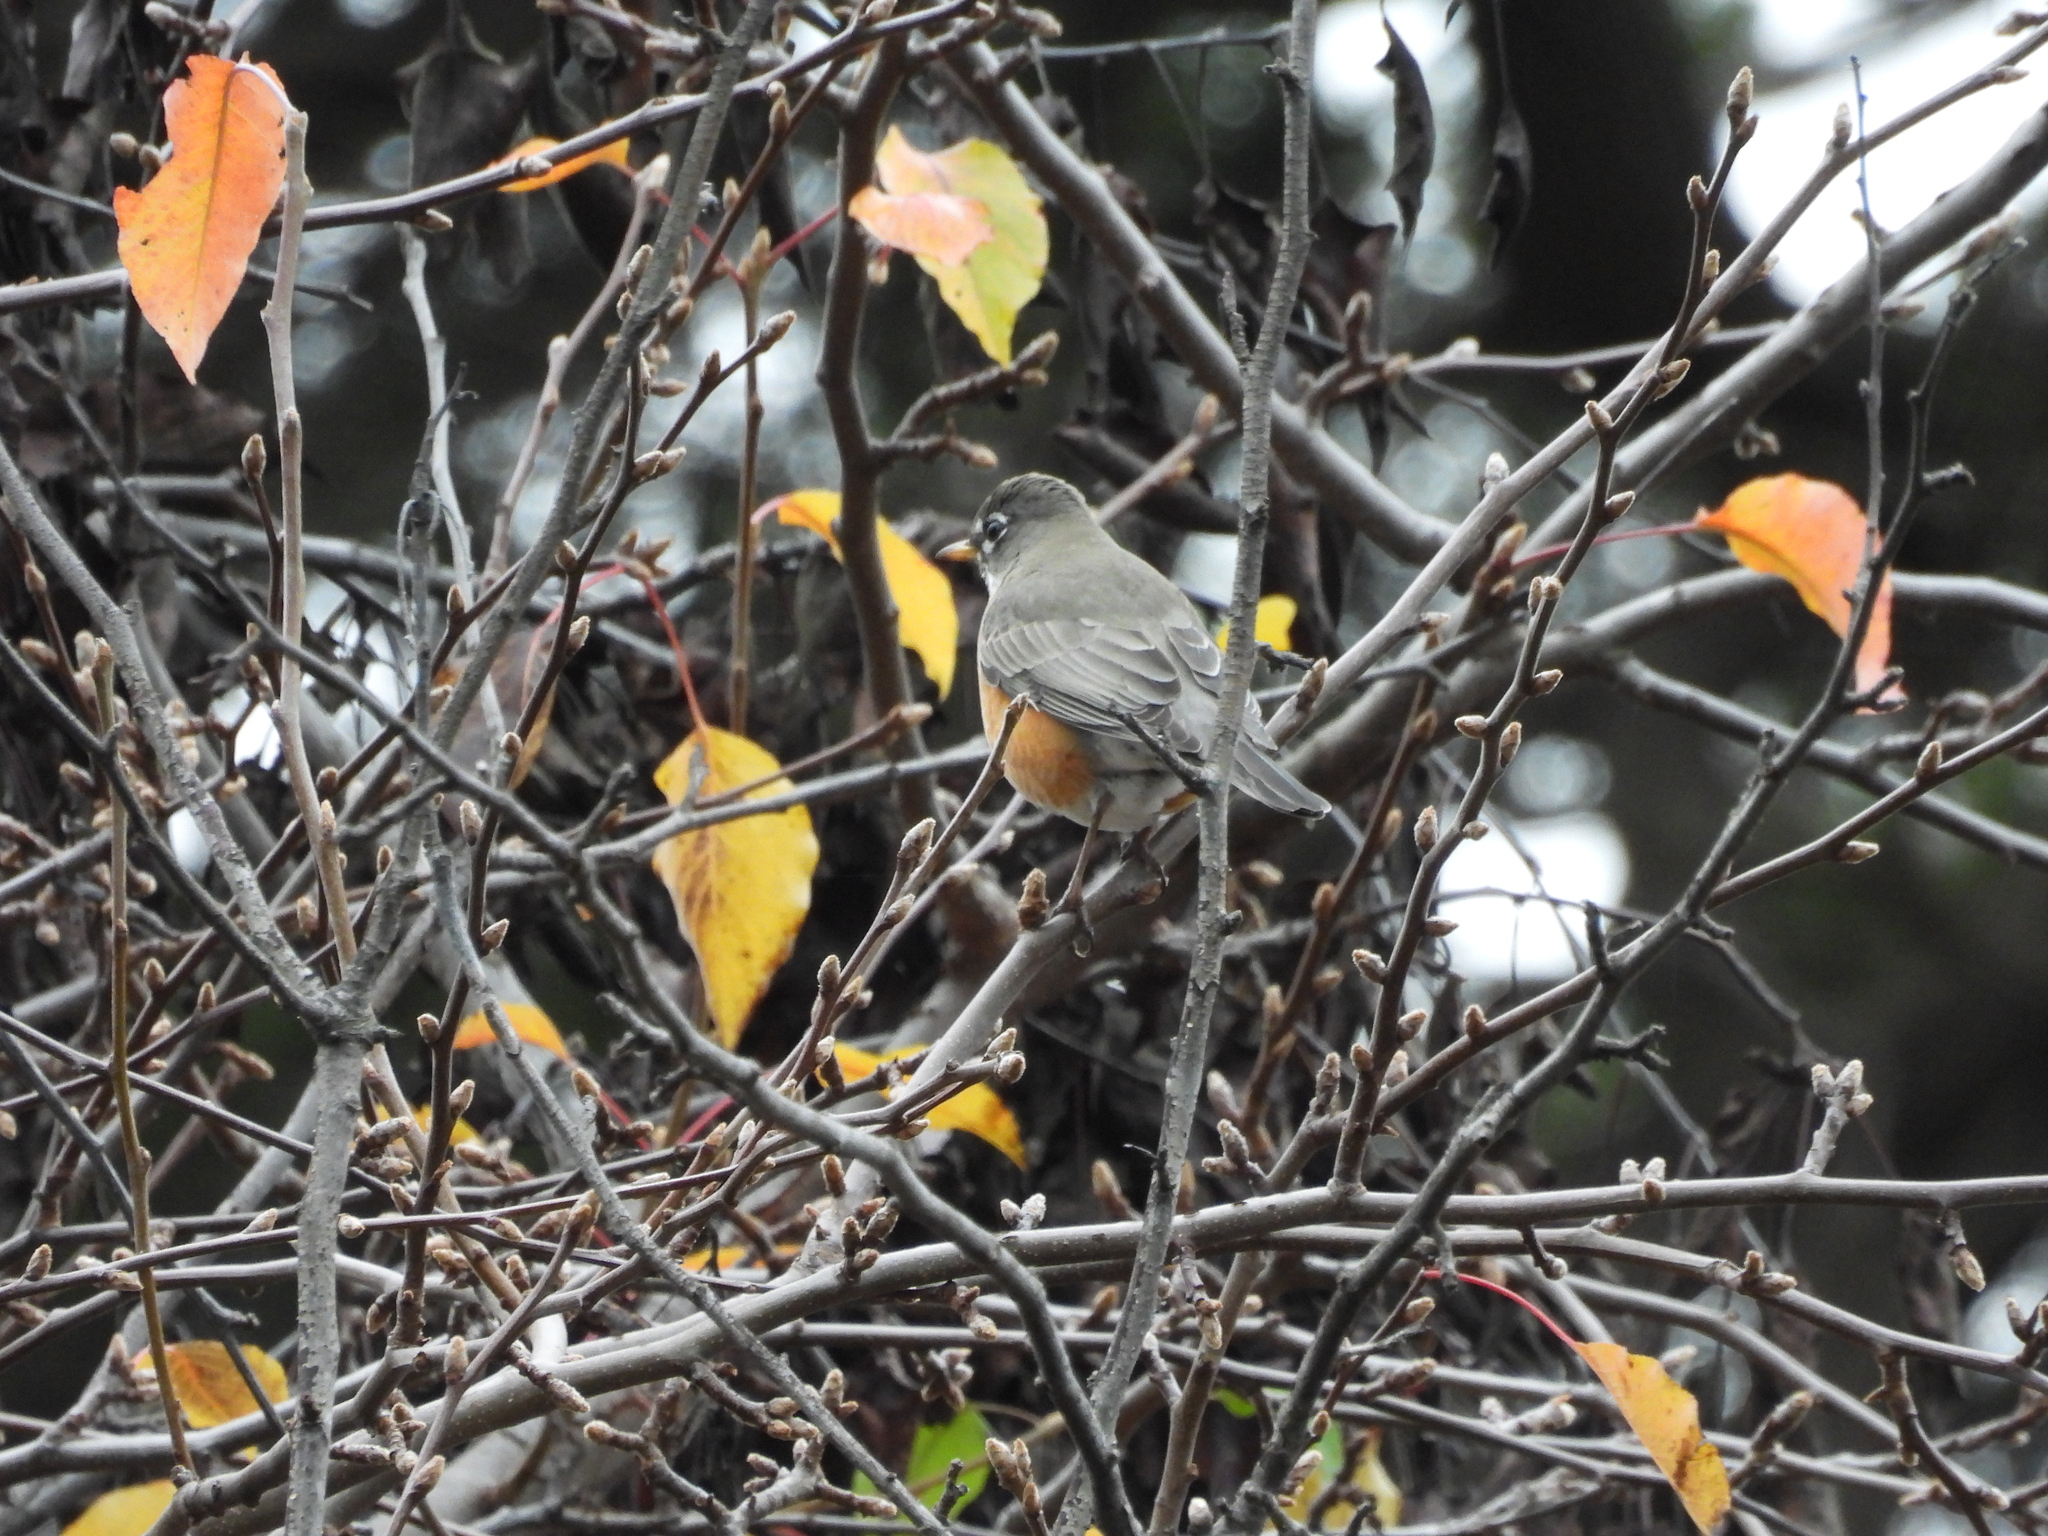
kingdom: Animalia
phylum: Chordata
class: Aves
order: Passeriformes
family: Turdidae
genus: Turdus
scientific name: Turdus migratorius
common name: American robin
